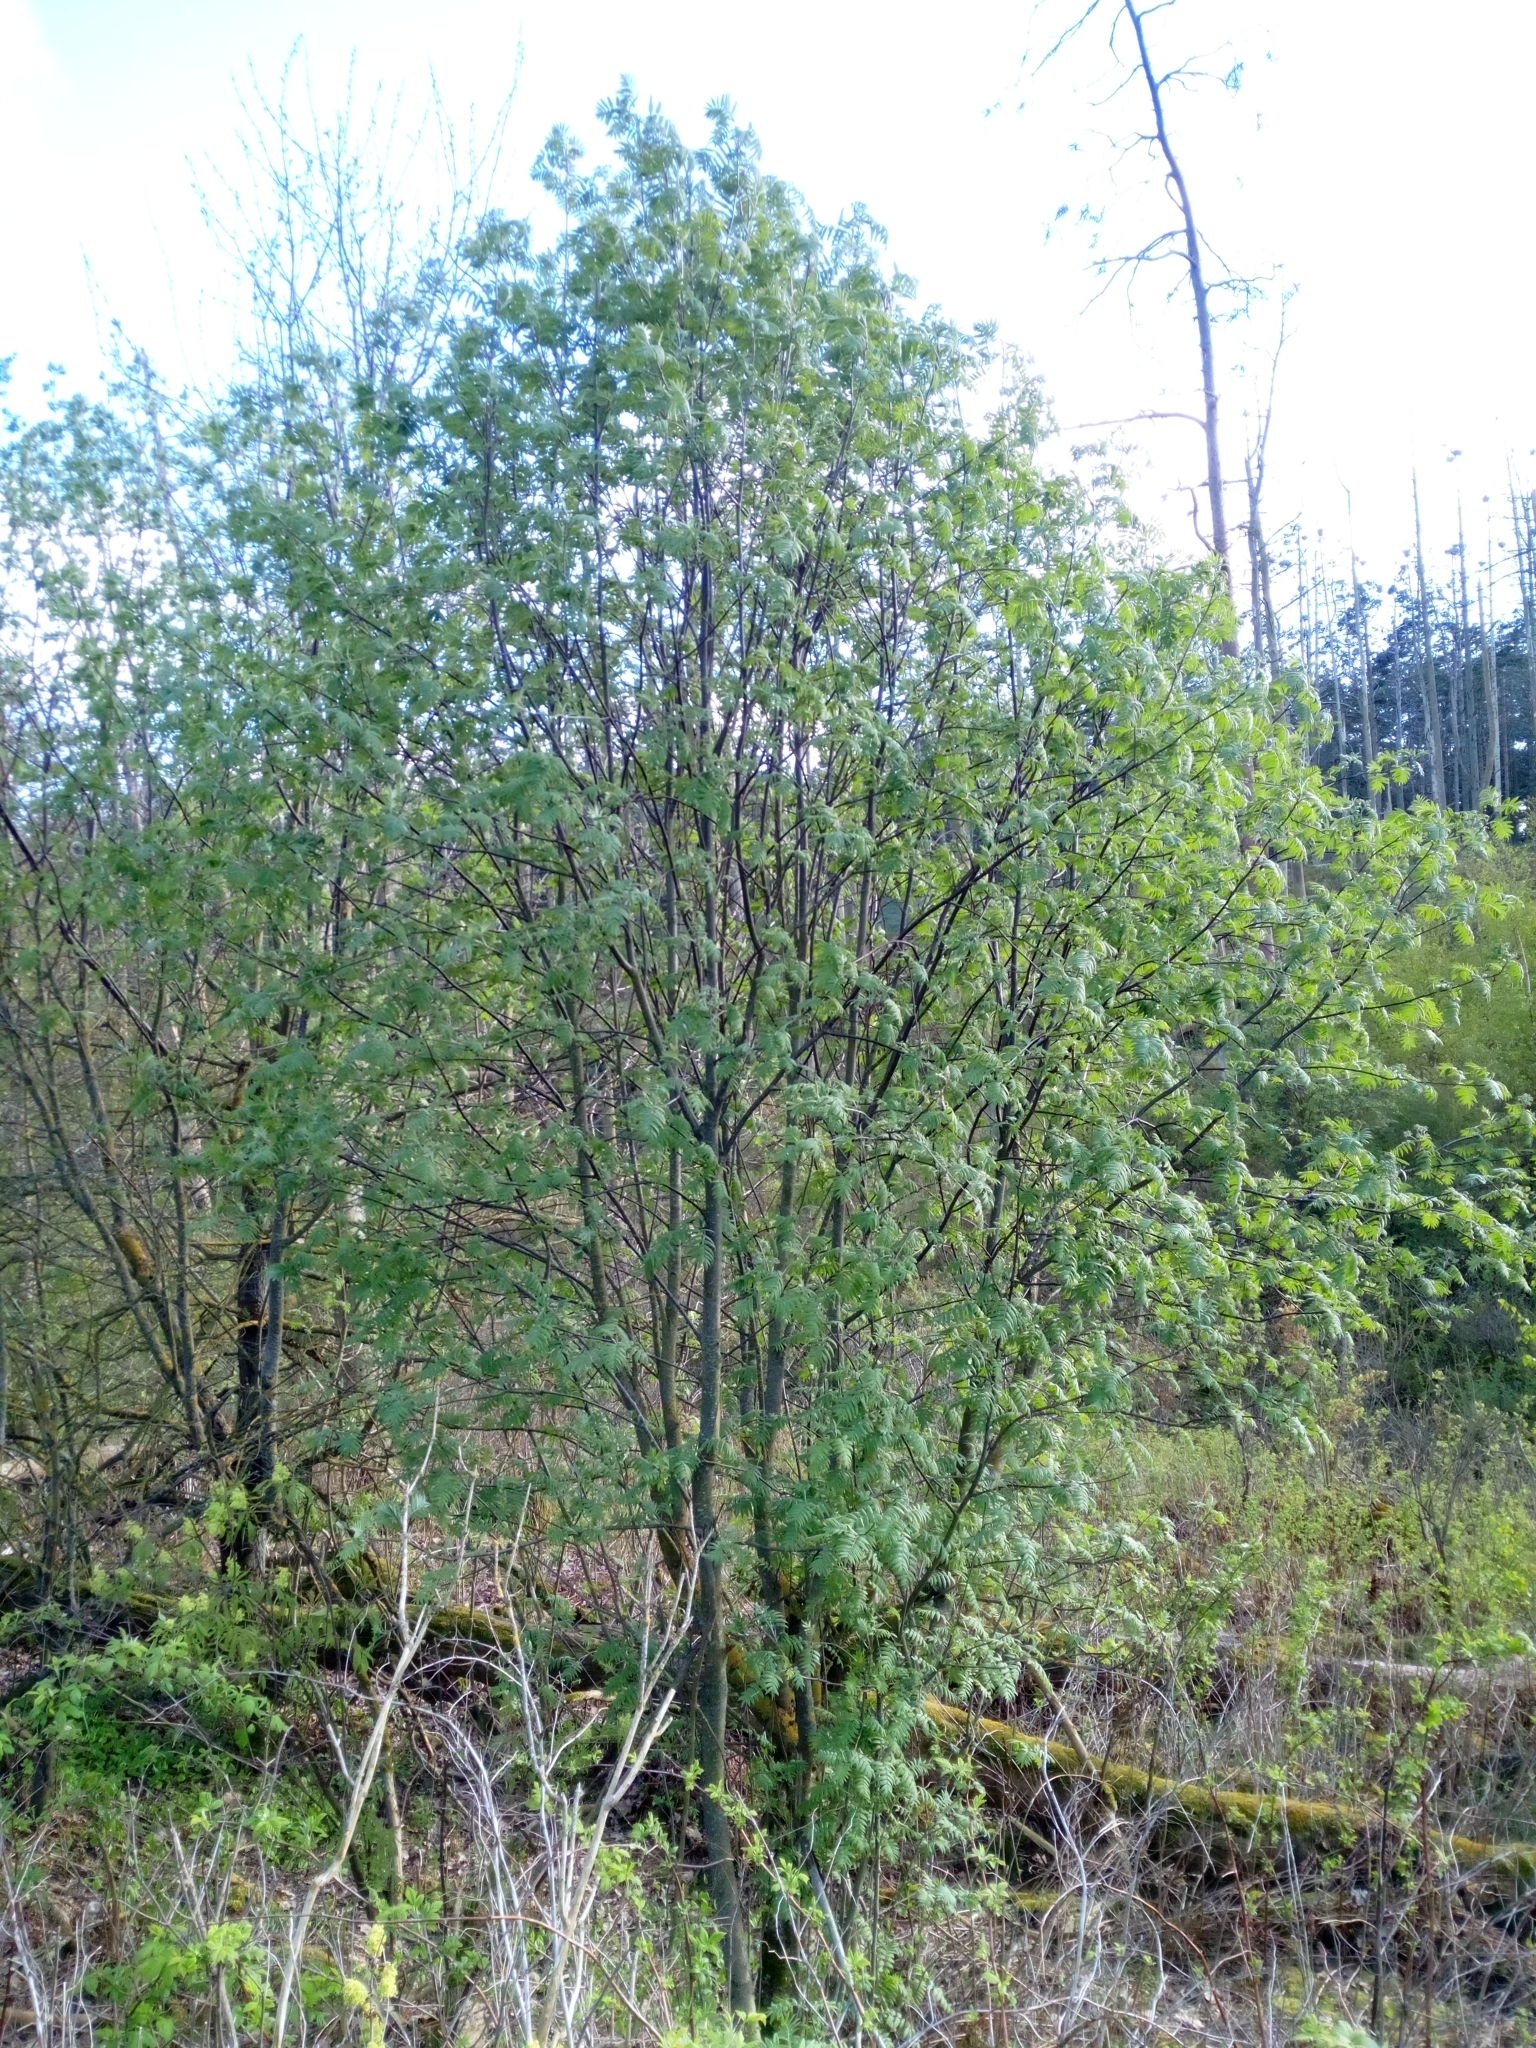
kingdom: Plantae
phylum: Tracheophyta
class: Magnoliopsida
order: Rosales
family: Rosaceae
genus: Sorbus
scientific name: Sorbus aucuparia
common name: Rowan
